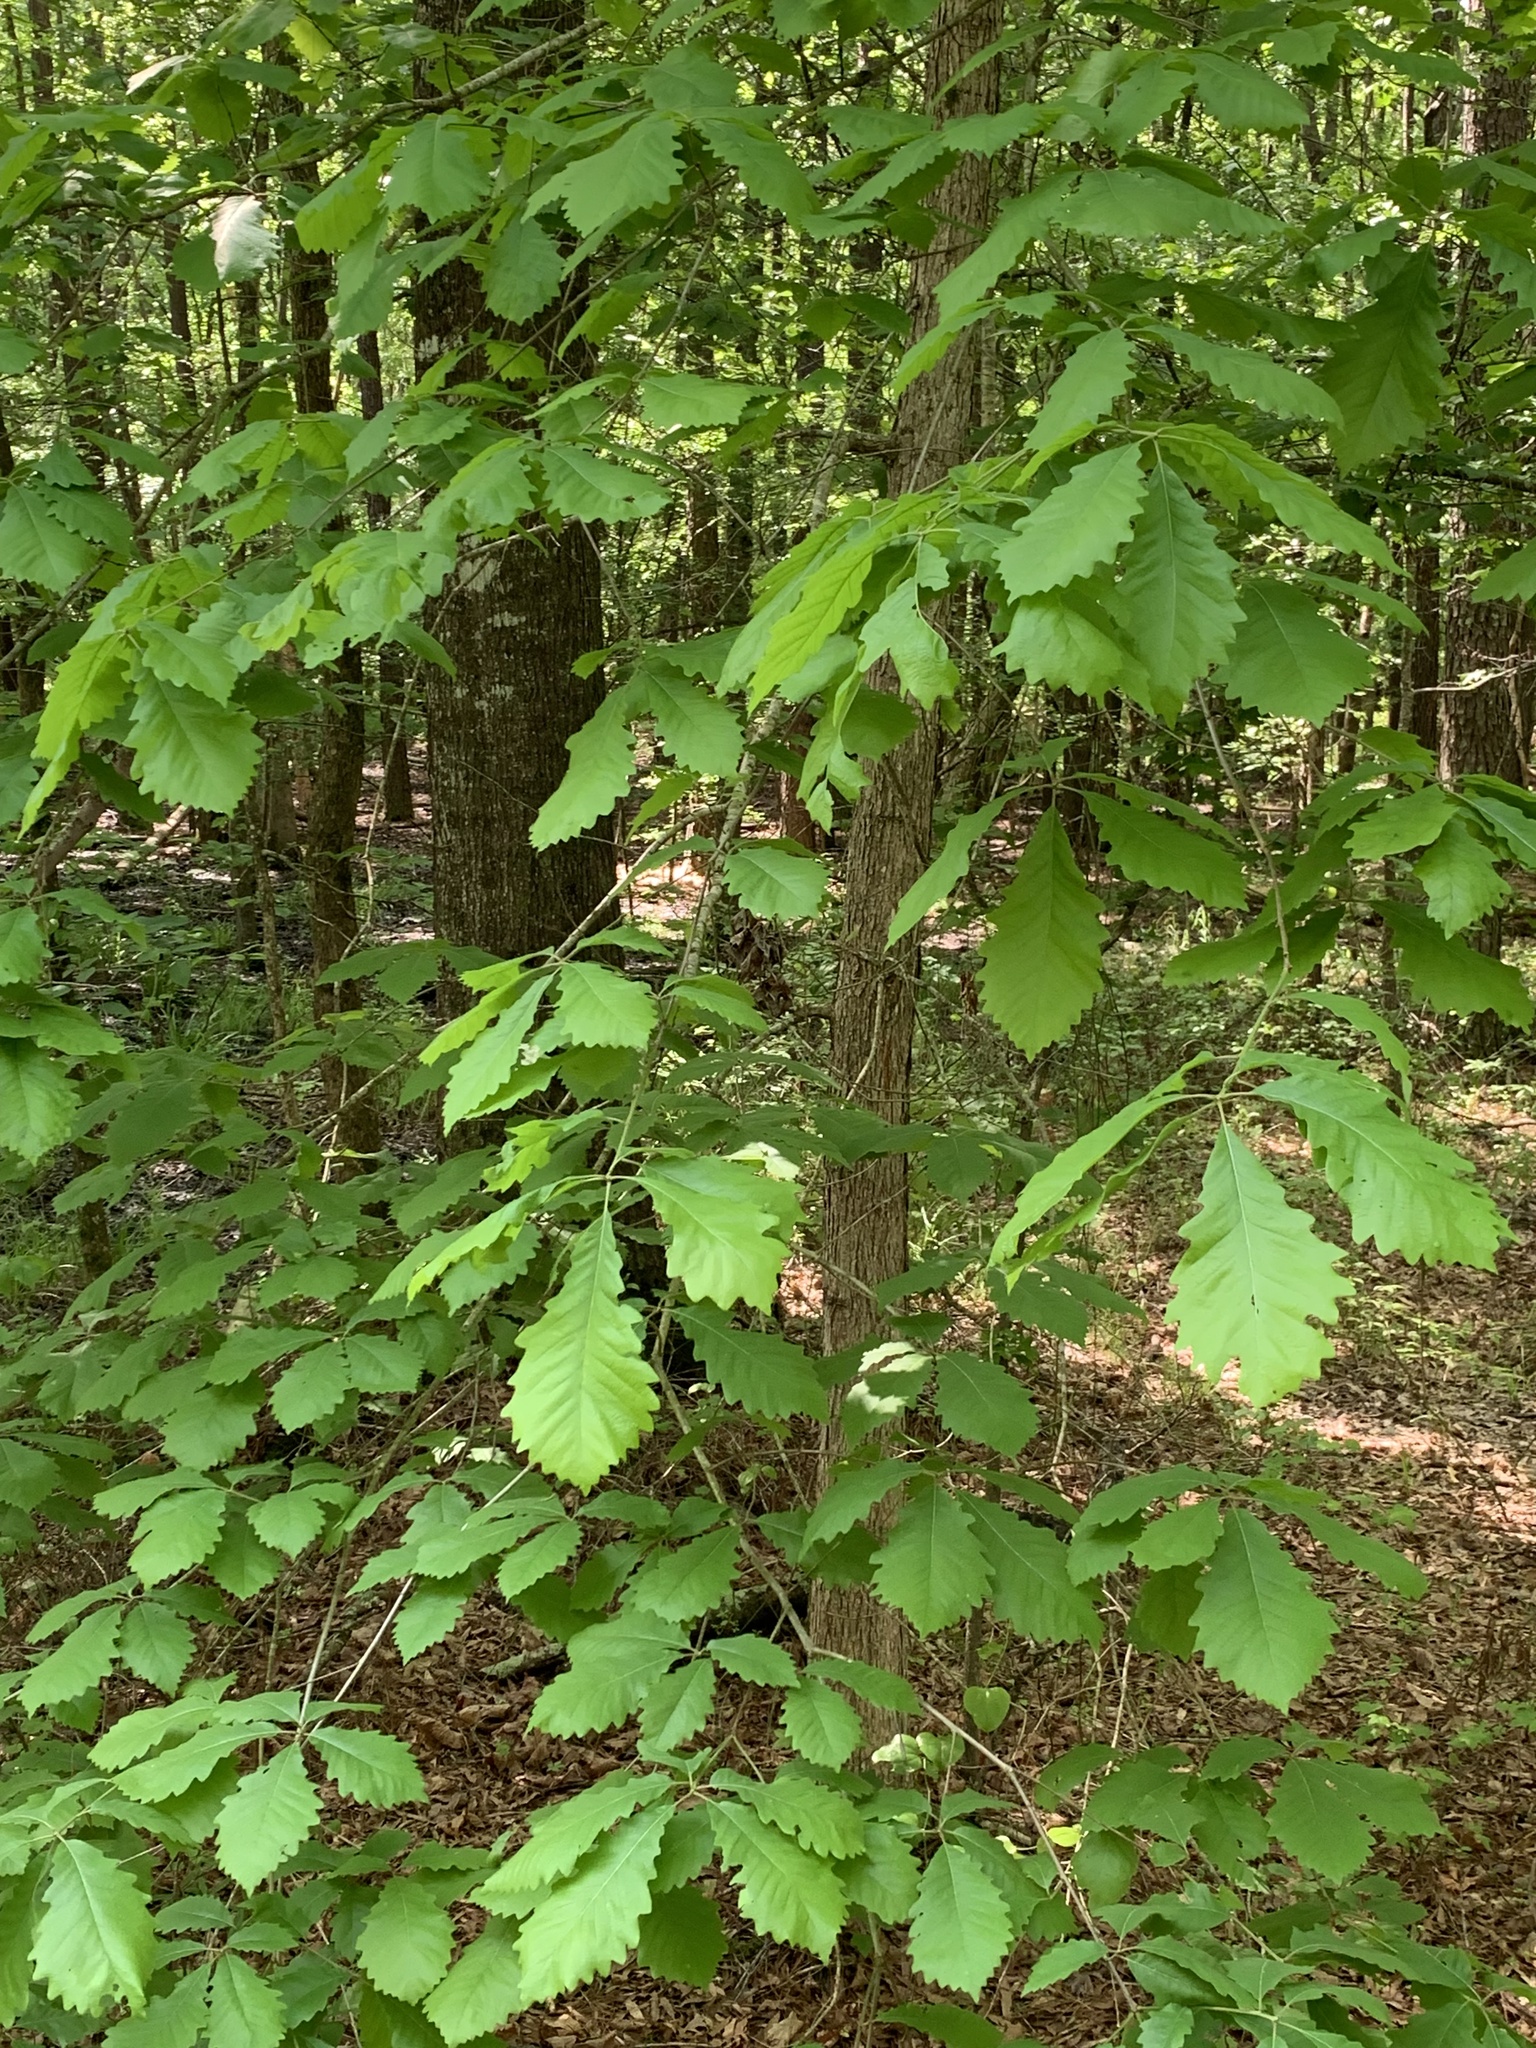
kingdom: Plantae
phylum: Tracheophyta
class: Magnoliopsida
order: Fagales
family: Fagaceae
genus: Quercus
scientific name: Quercus michauxii
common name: Swamp chestnut oak
